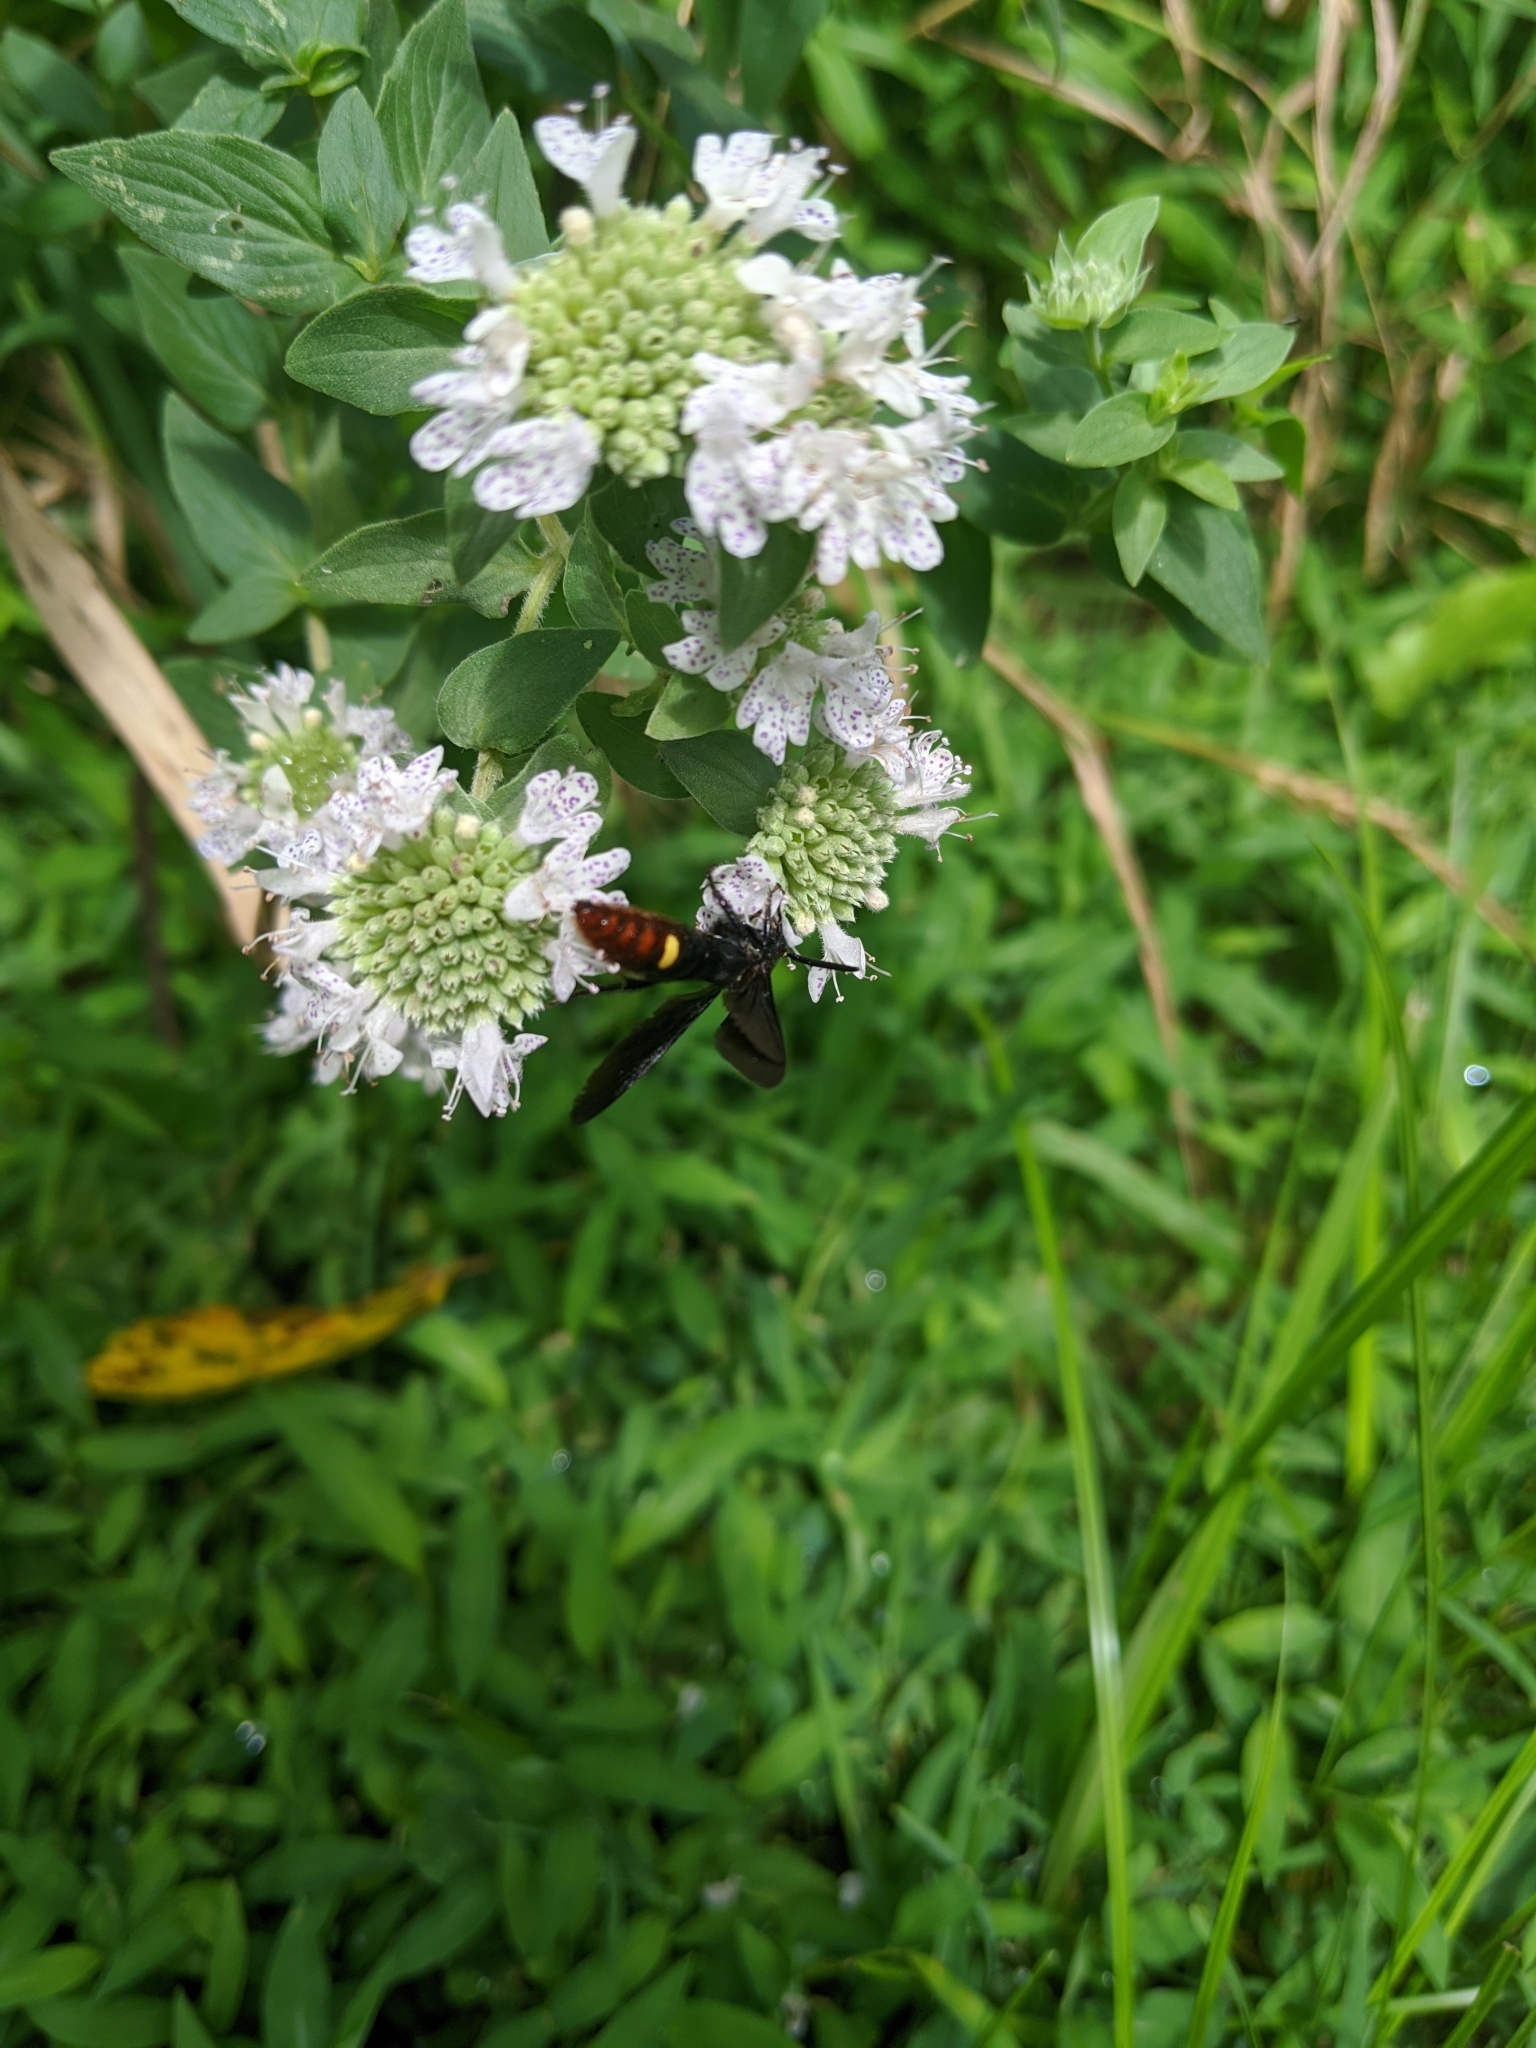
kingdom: Animalia
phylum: Arthropoda
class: Insecta
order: Hymenoptera
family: Scoliidae
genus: Scolia
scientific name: Scolia dubia
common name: Blue-winged scoliid wasp
